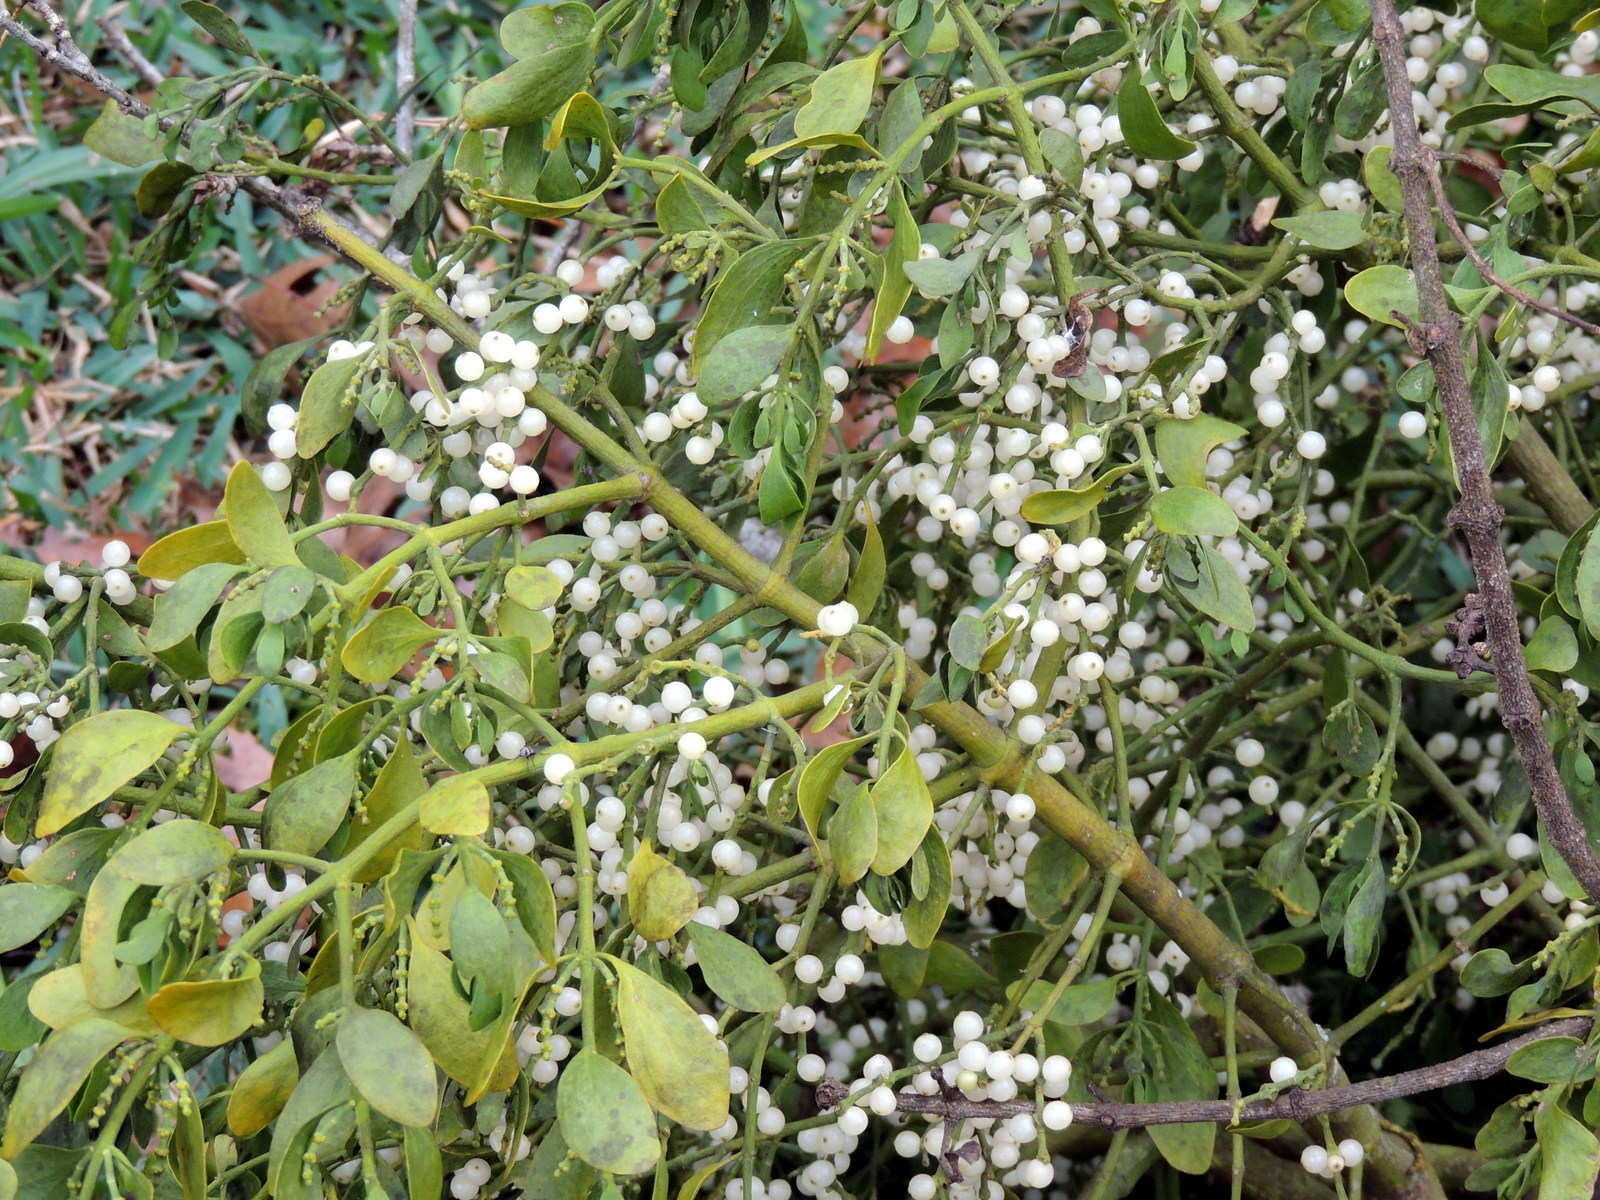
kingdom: Plantae
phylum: Tracheophyta
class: Magnoliopsida
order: Santalales
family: Viscaceae
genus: Phoradendron
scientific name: Phoradendron leucarpum
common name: Pacific mistletoe
